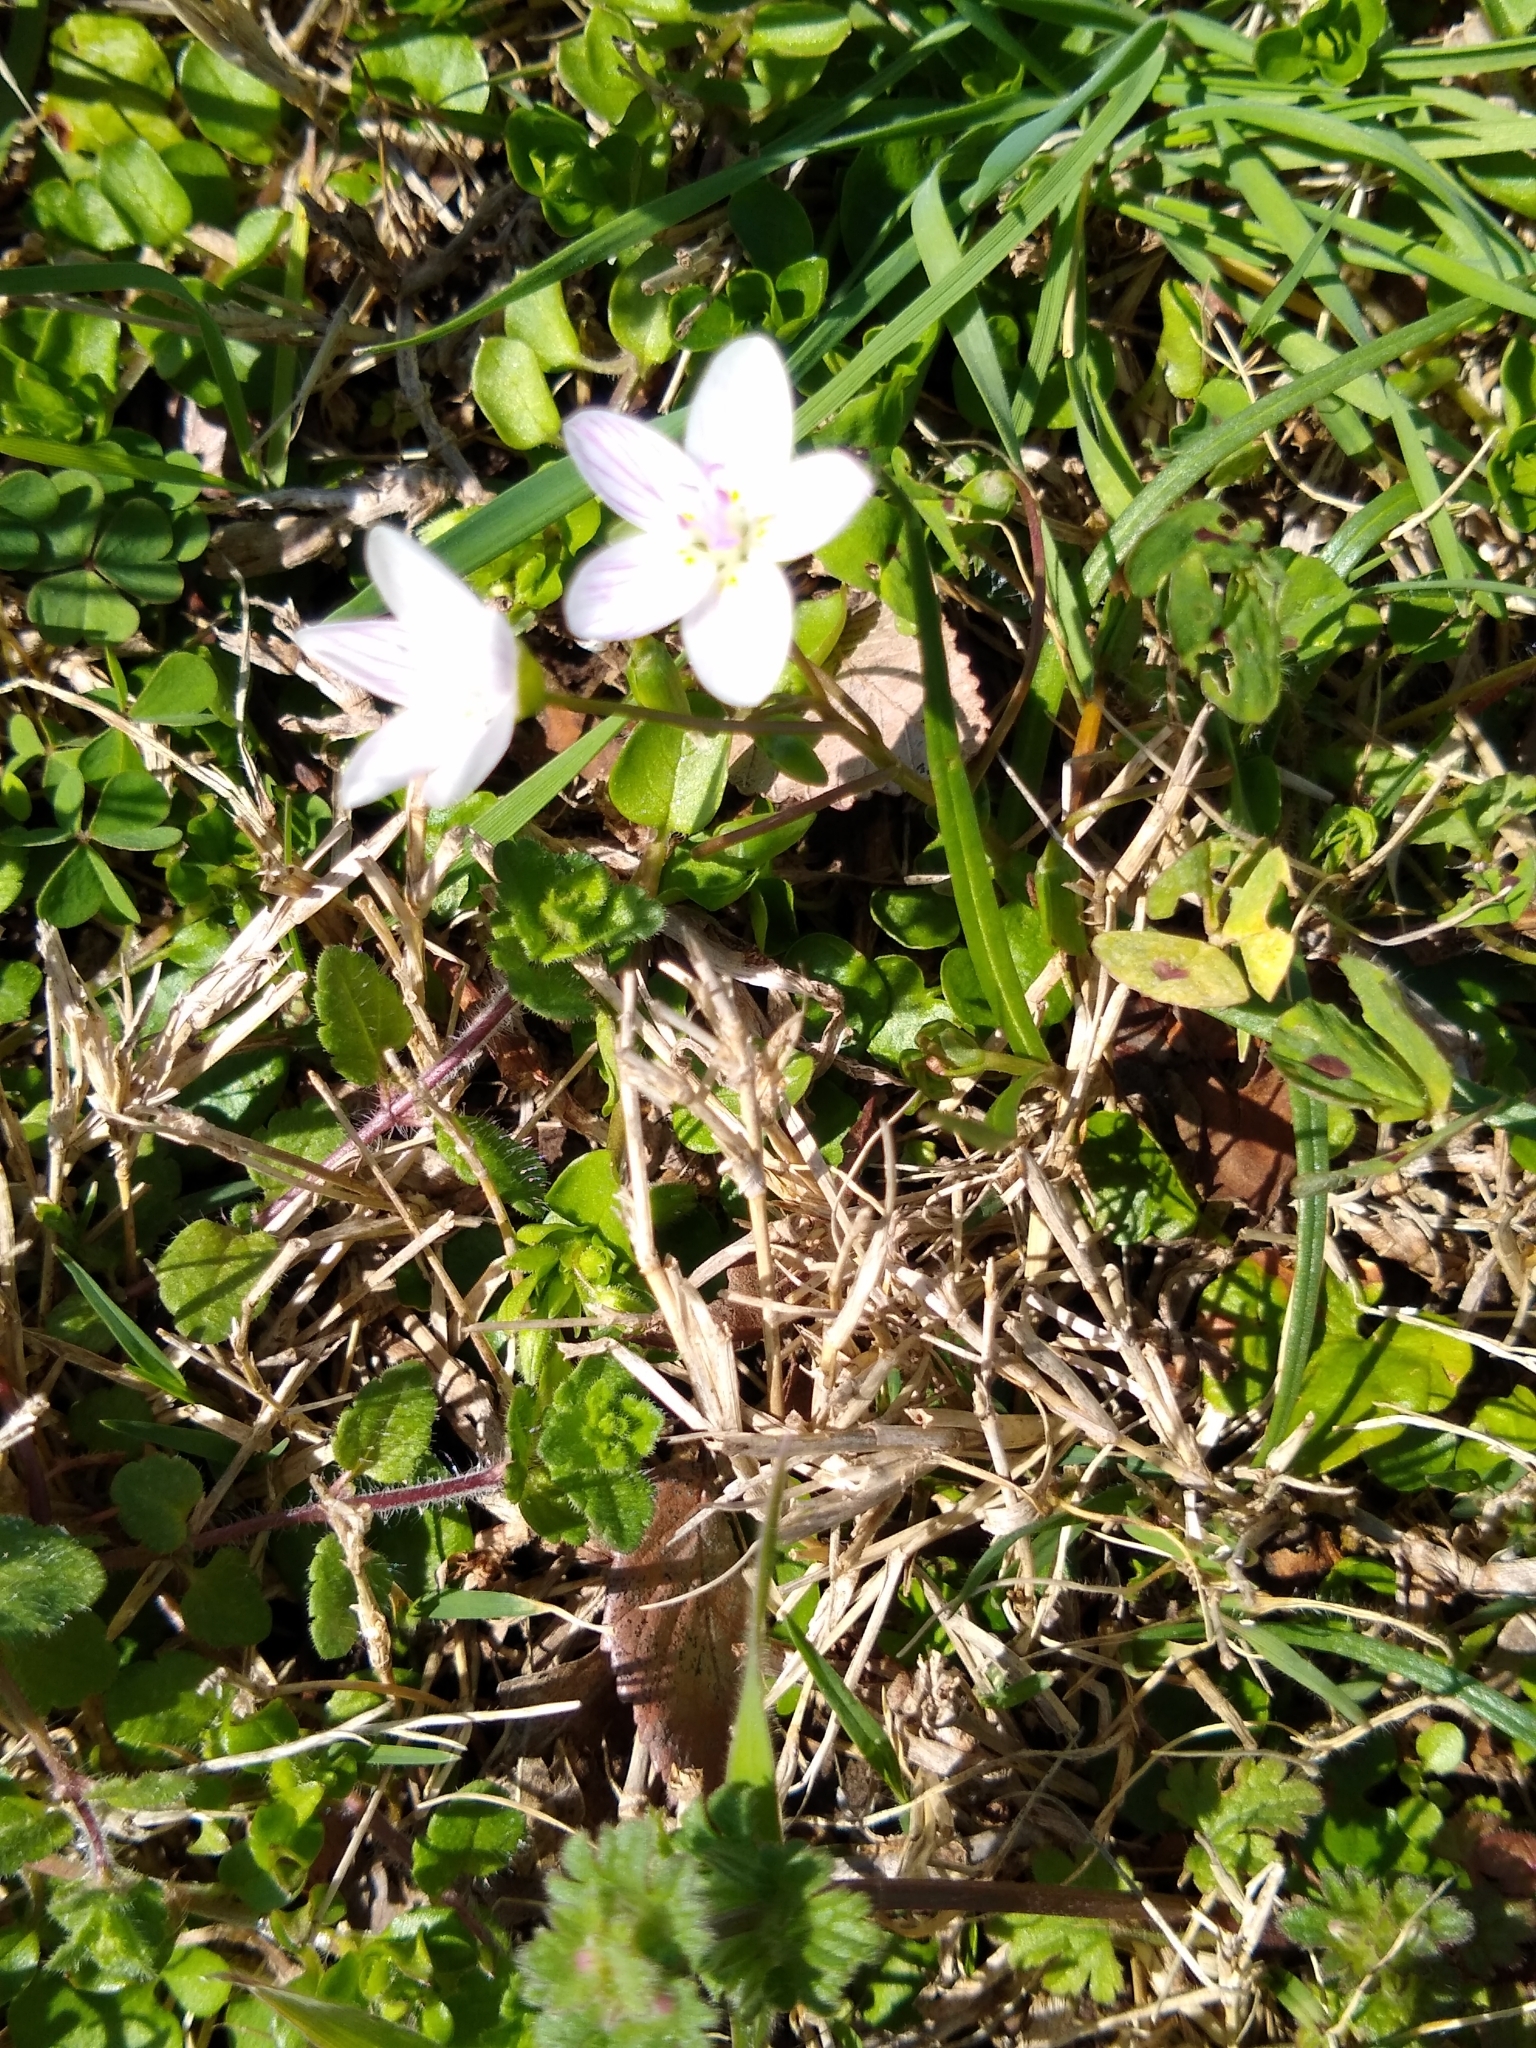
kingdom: Plantae
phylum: Tracheophyta
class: Magnoliopsida
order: Caryophyllales
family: Montiaceae
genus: Claytonia
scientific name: Claytonia virginica
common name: Virginia springbeauty
